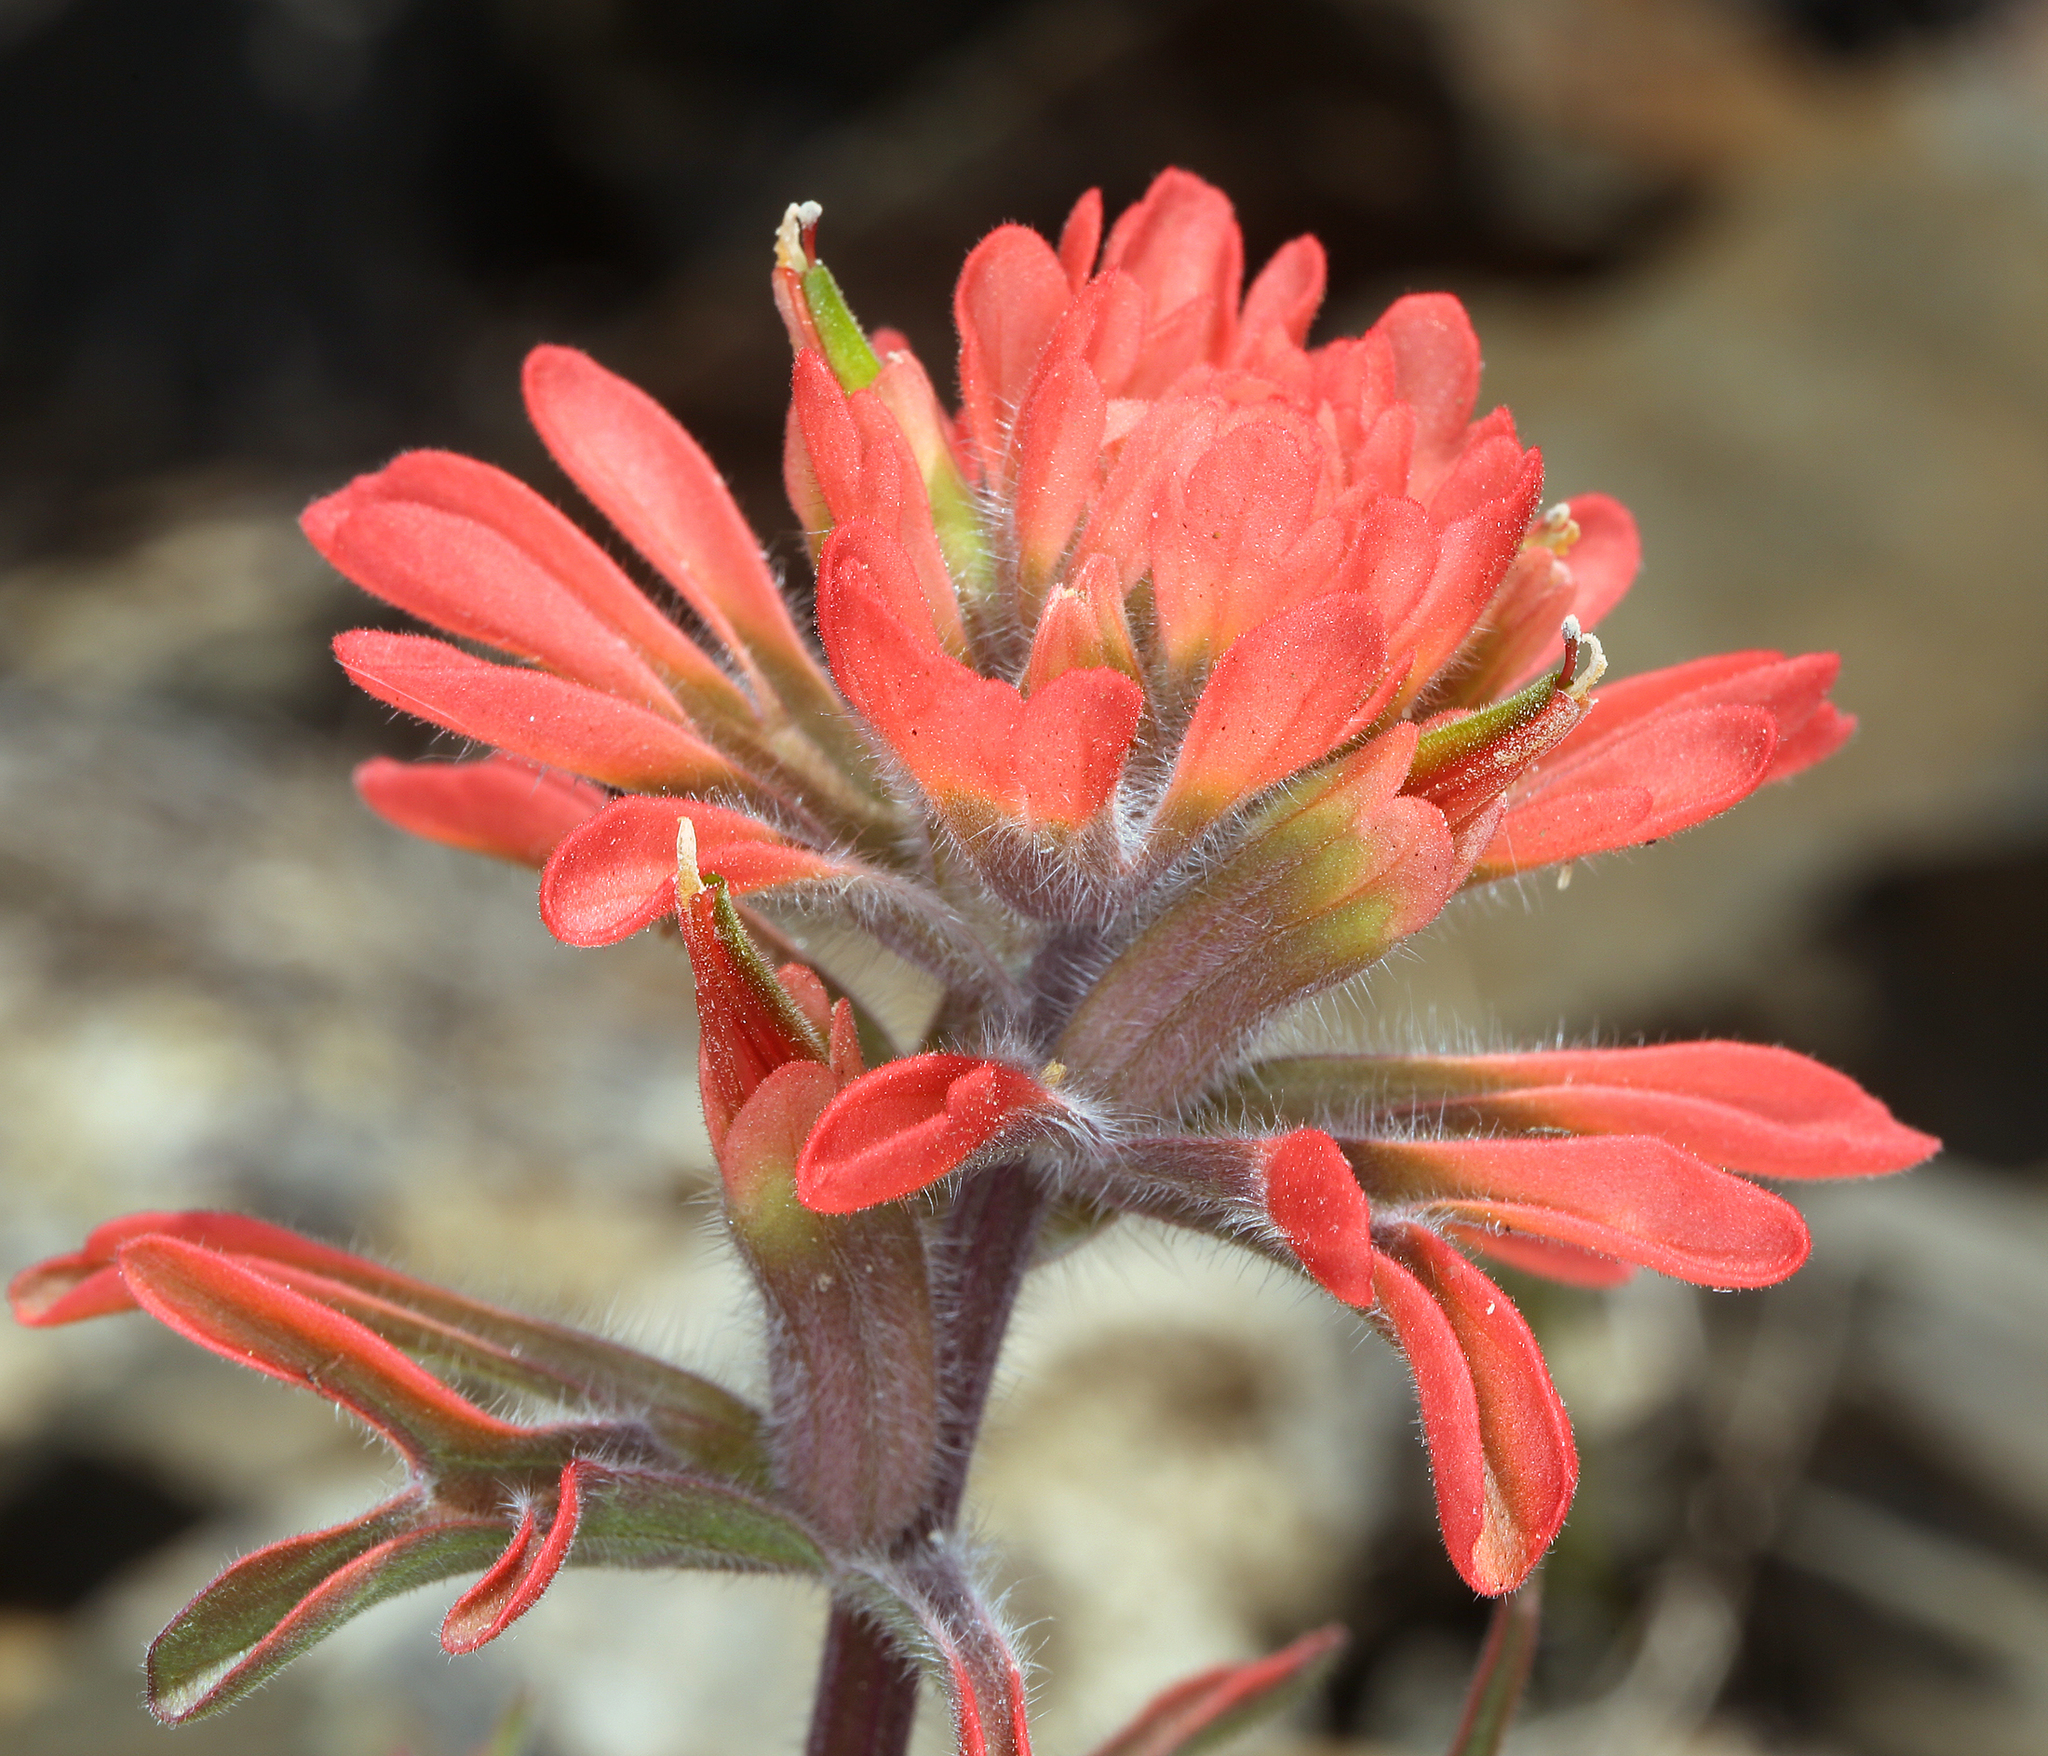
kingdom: Plantae
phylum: Tracheophyta
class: Magnoliopsida
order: Lamiales
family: Orobanchaceae
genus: Castilleja
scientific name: Castilleja chromosa
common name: Desert paintbrush
